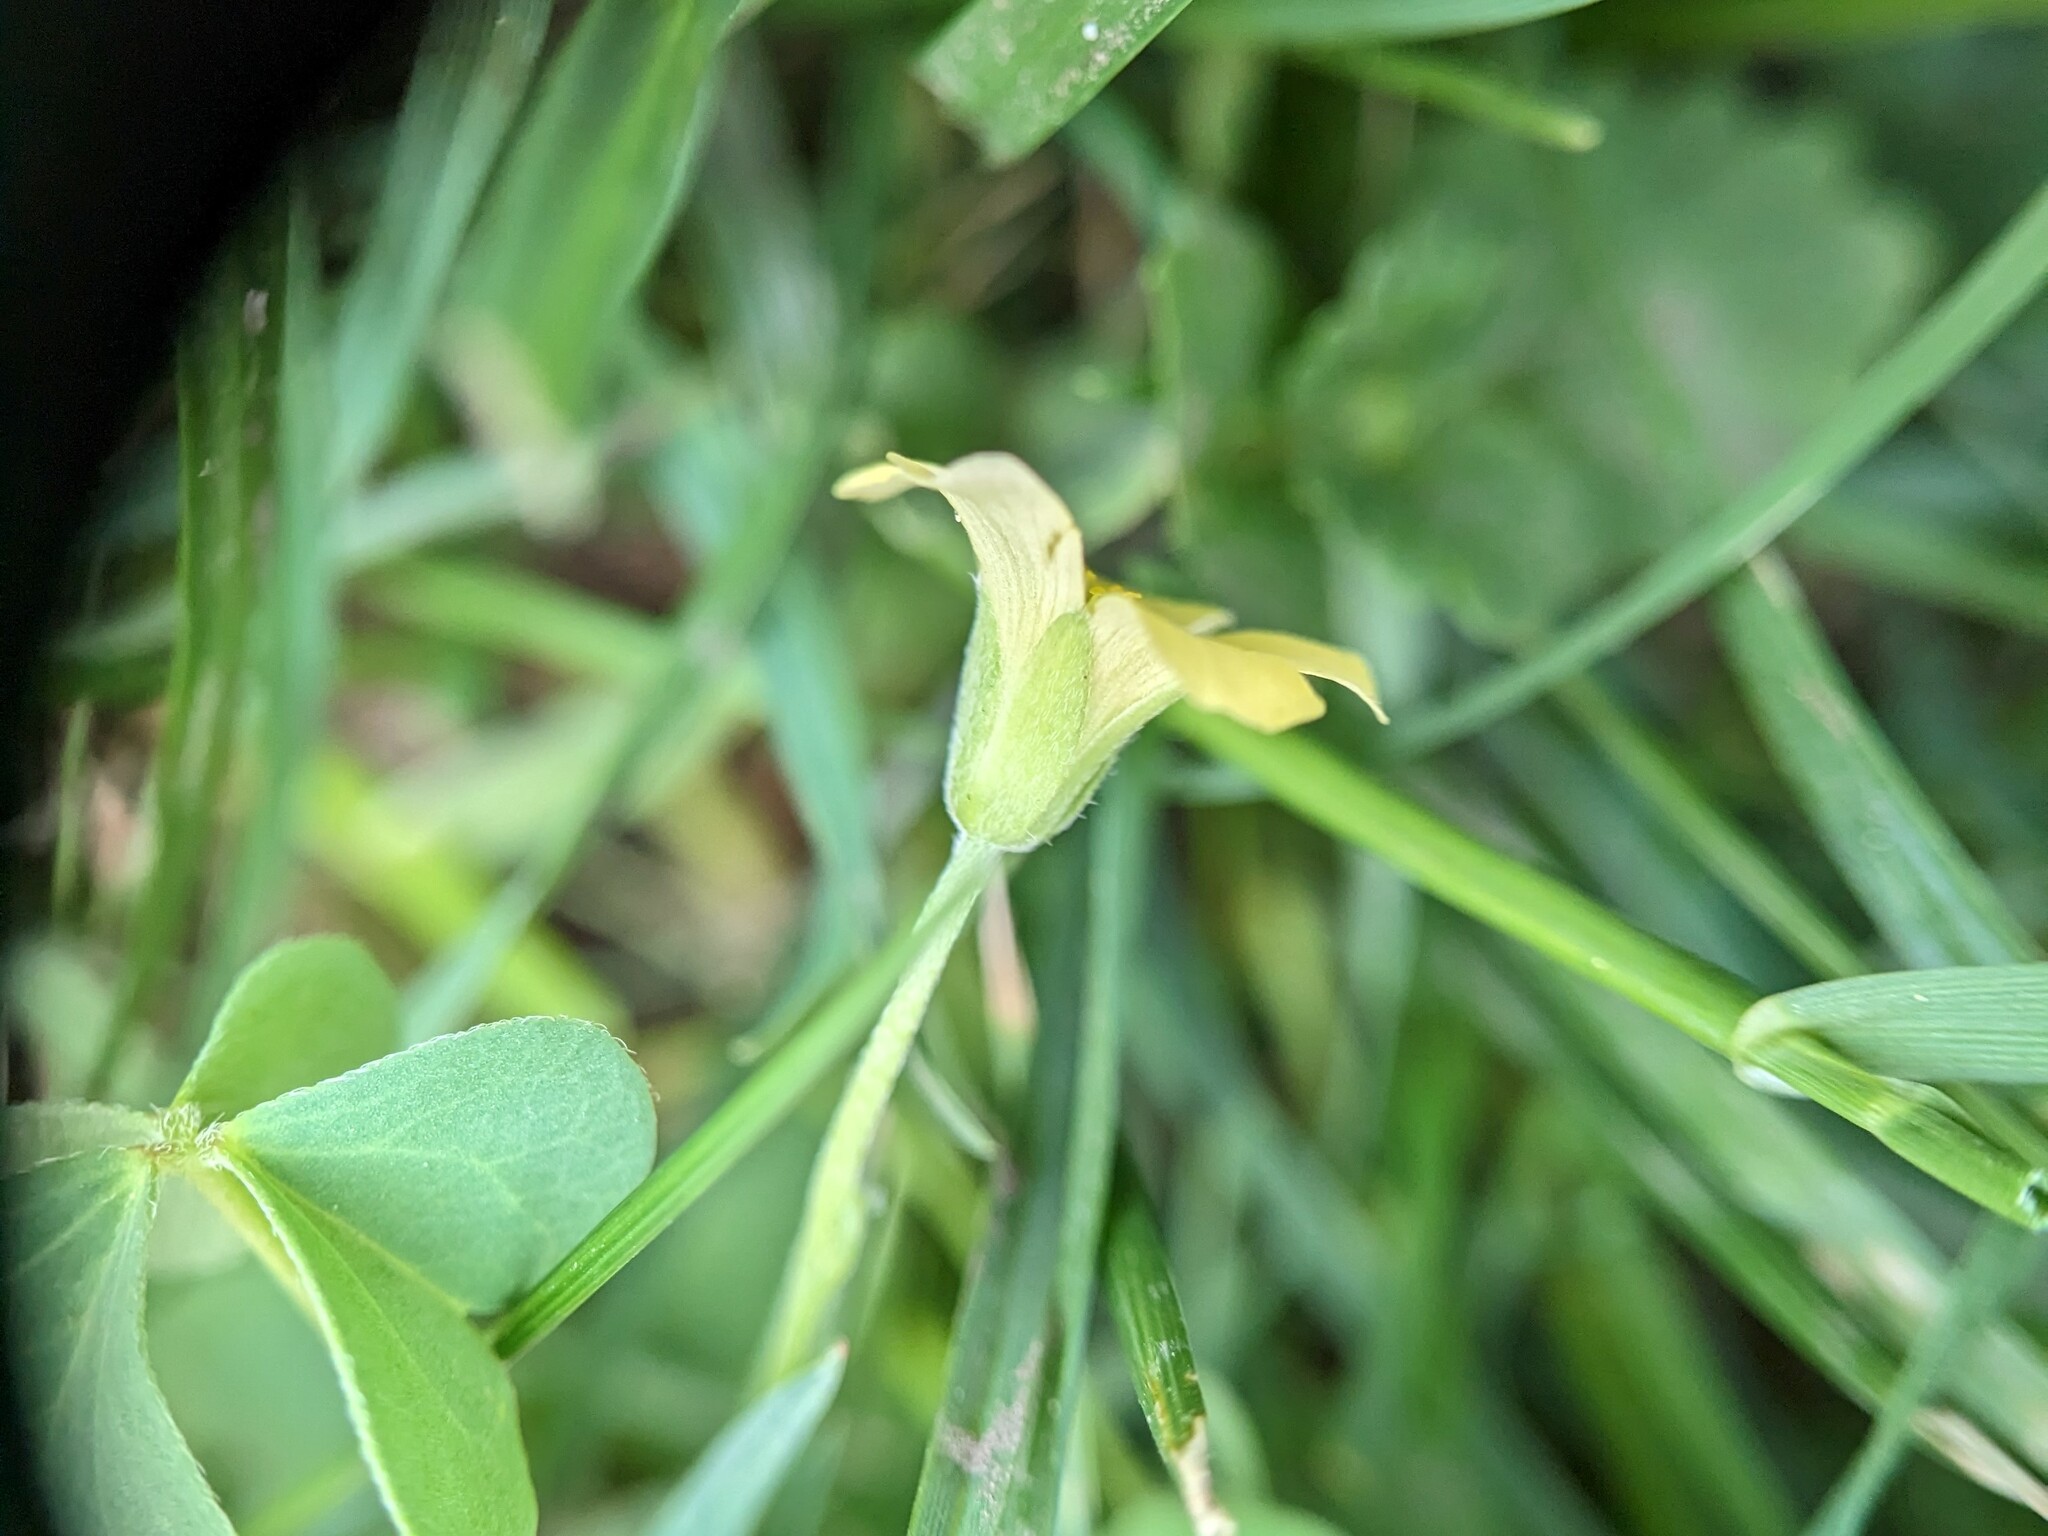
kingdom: Plantae
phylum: Tracheophyta
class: Magnoliopsida
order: Oxalidales
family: Oxalidaceae
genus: Oxalis
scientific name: Oxalis dillenii
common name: Sussex yellow-sorrel
